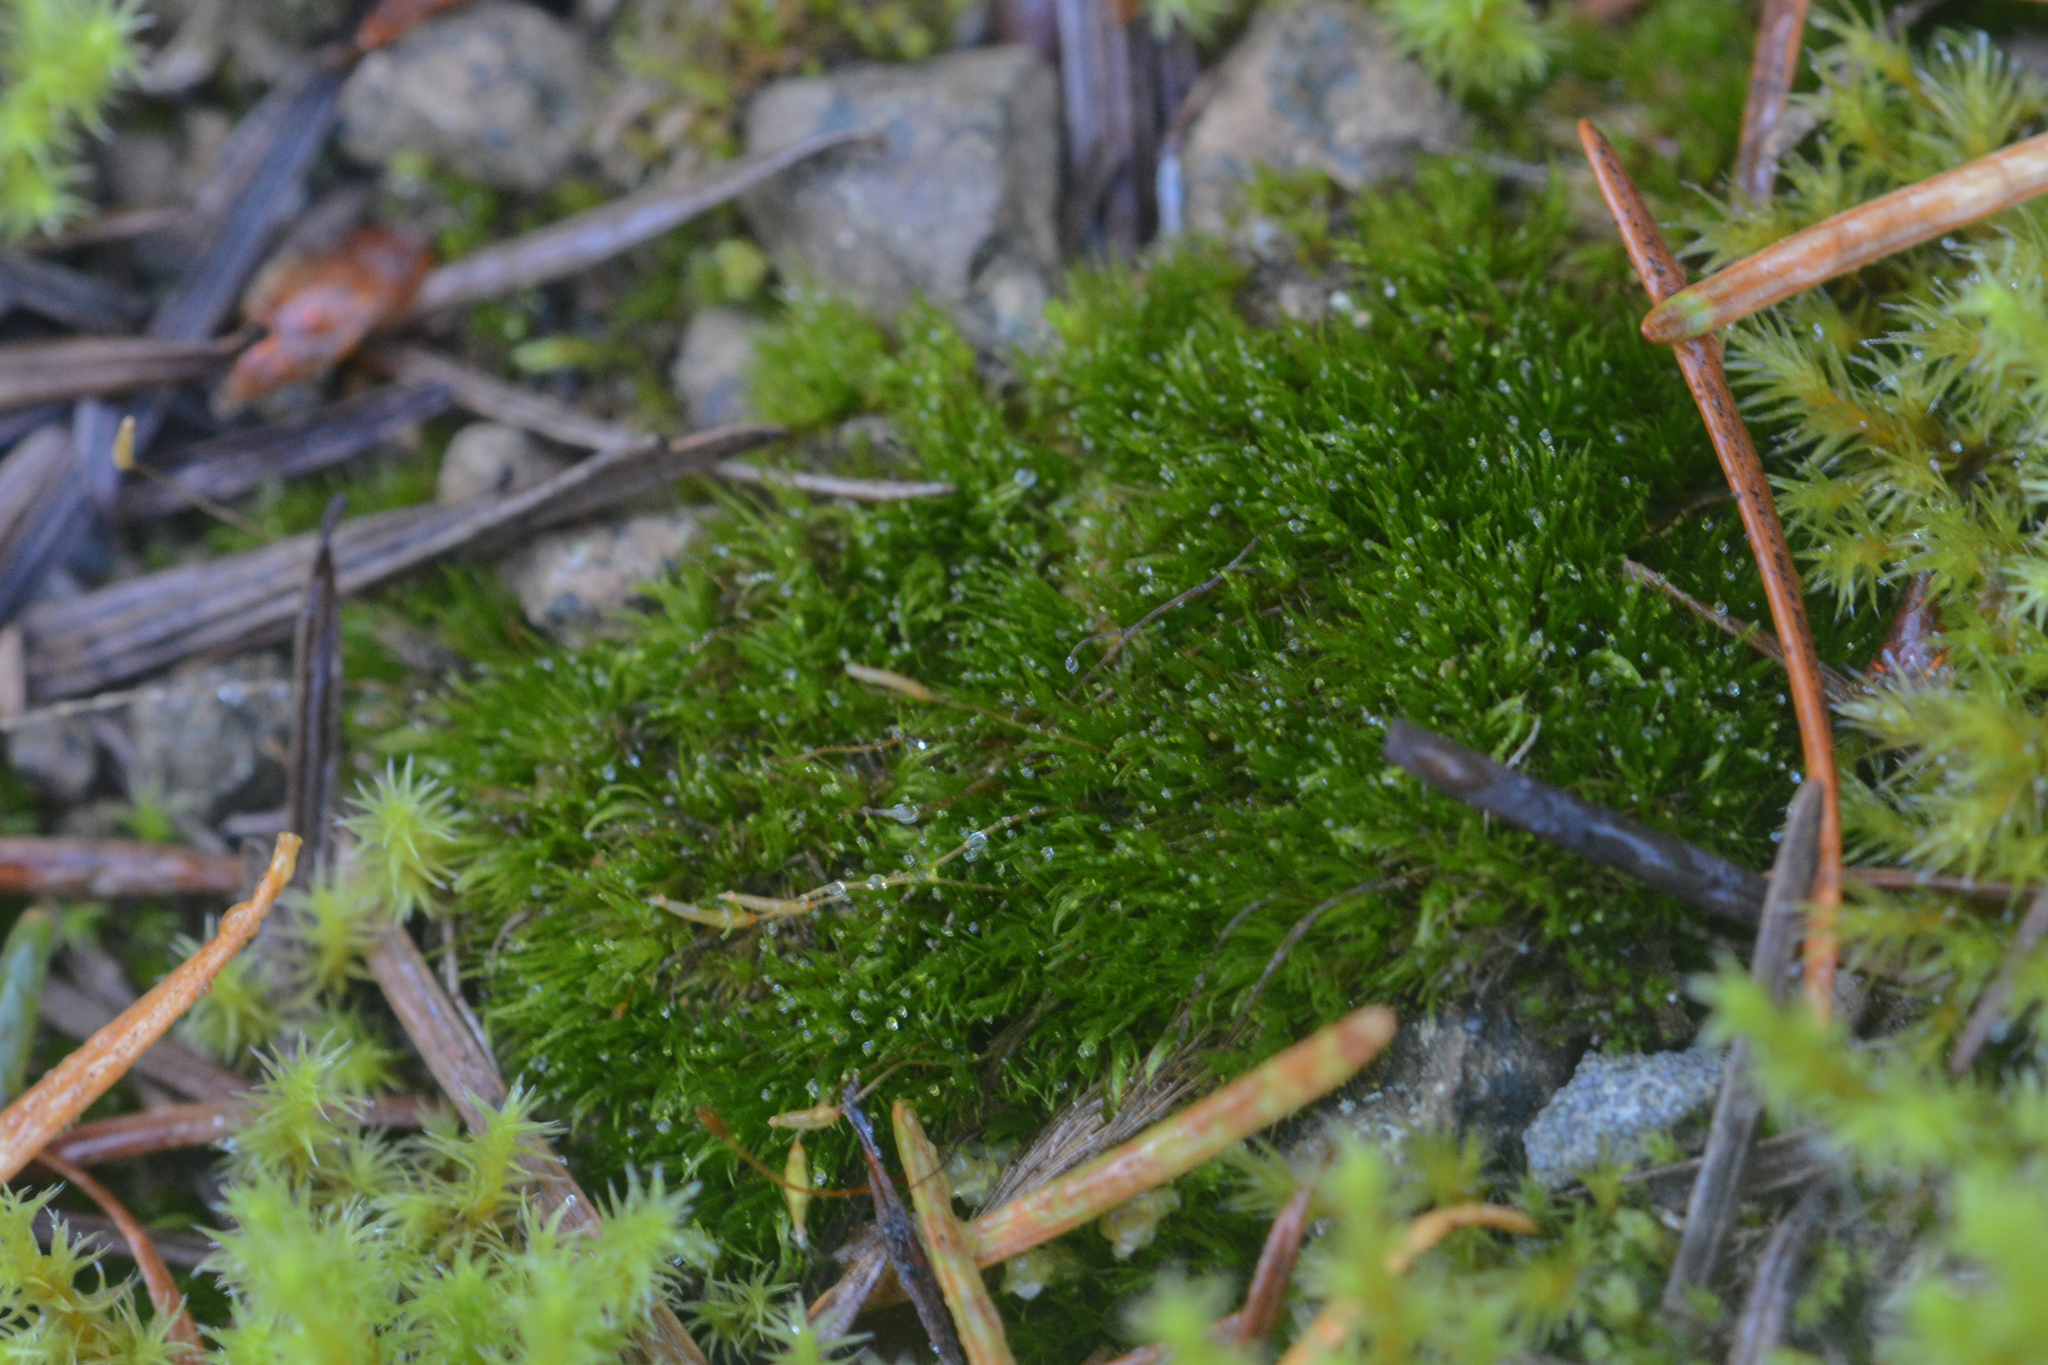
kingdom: Plantae
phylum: Bryophyta
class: Bryopsida
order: Dicranales
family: Ditrichaceae
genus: Ditrichum
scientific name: Ditrichum heteromallum
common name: Curve-leaved ditrichum
